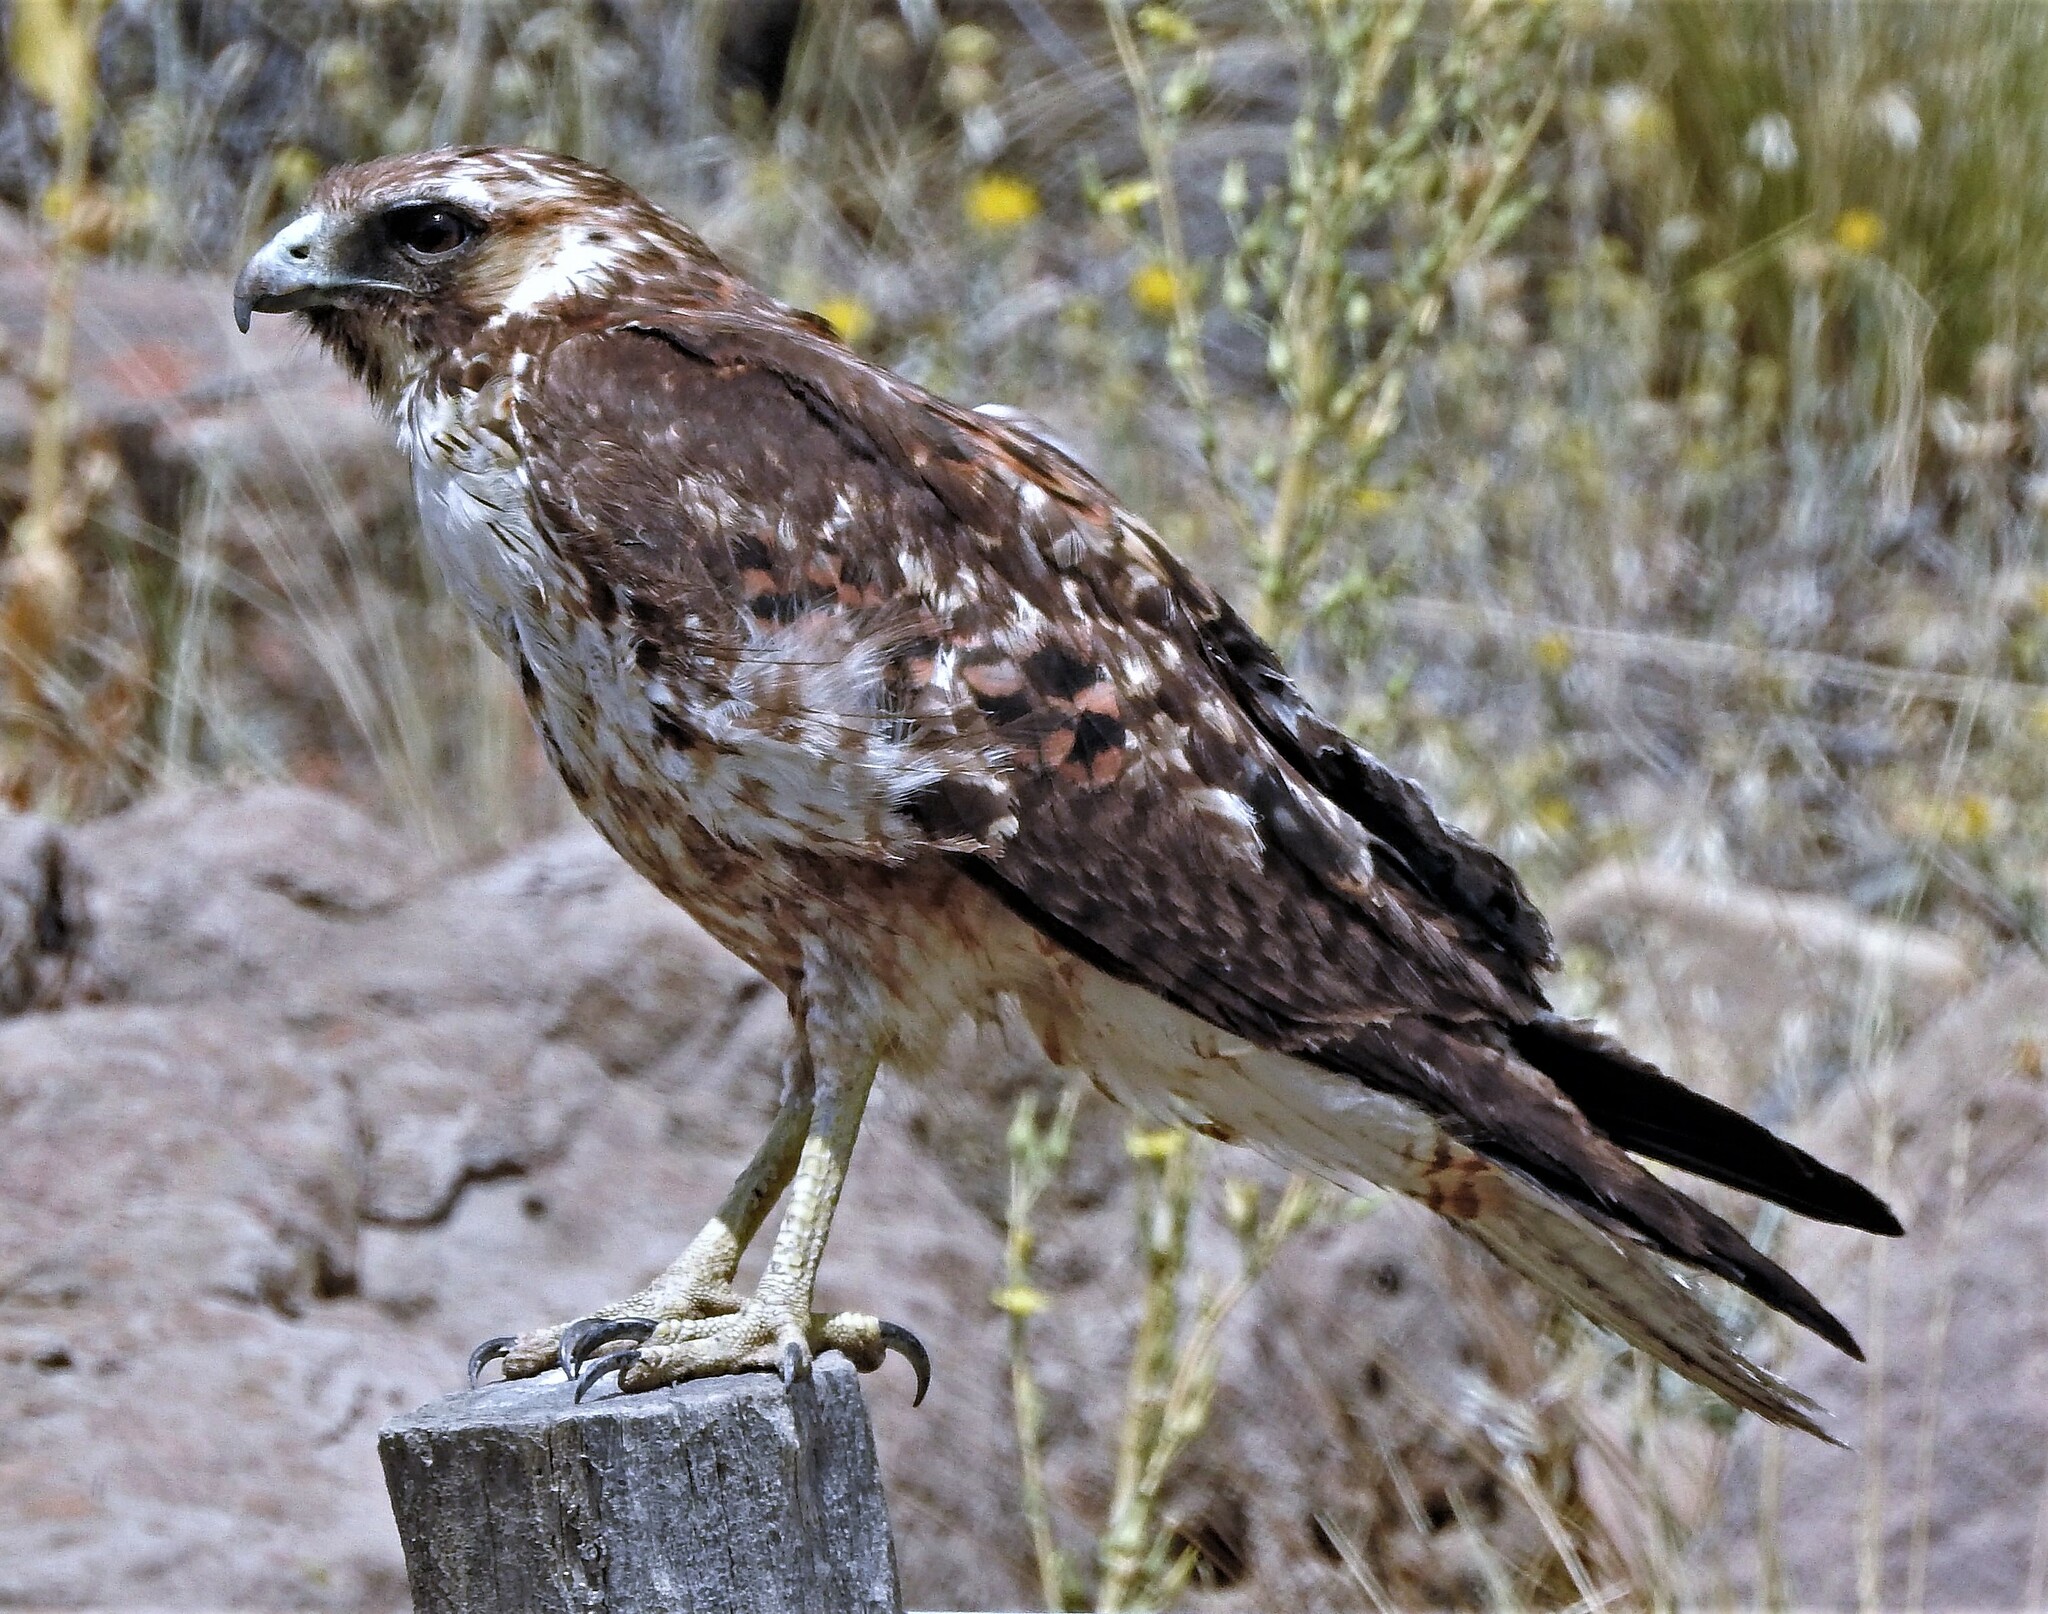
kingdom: Animalia
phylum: Chordata
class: Aves
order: Accipitriformes
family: Accipitridae
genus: Buteo
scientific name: Buteo polyosoma
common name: Variable hawk
